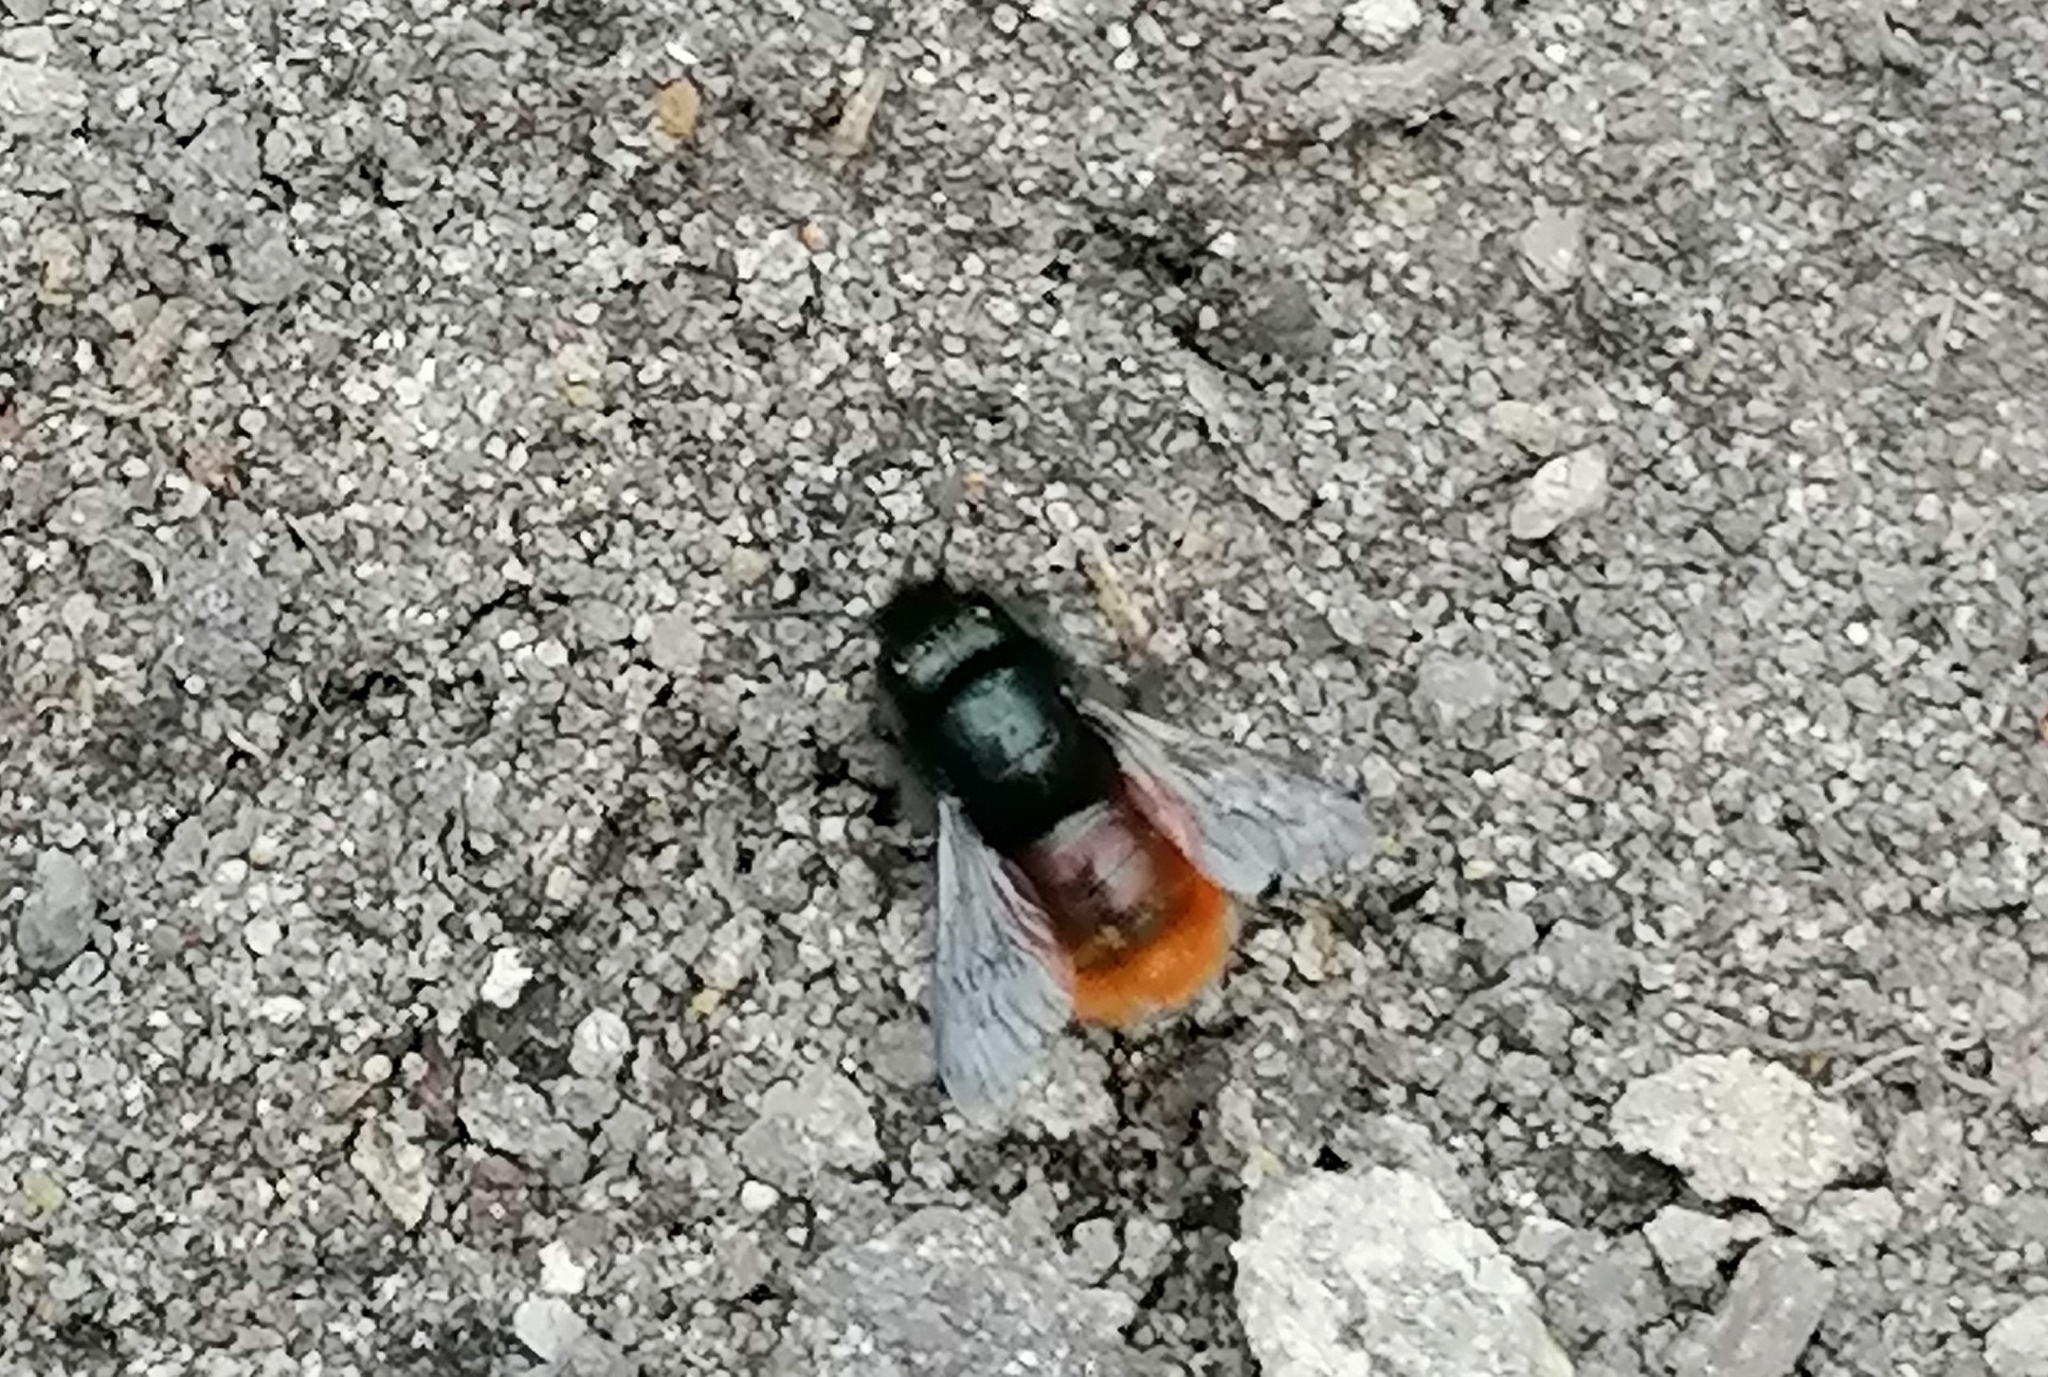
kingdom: Animalia
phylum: Arthropoda
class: Insecta
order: Hymenoptera
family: Megachilidae
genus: Osmia
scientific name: Osmia cornuta
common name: Mason bee
